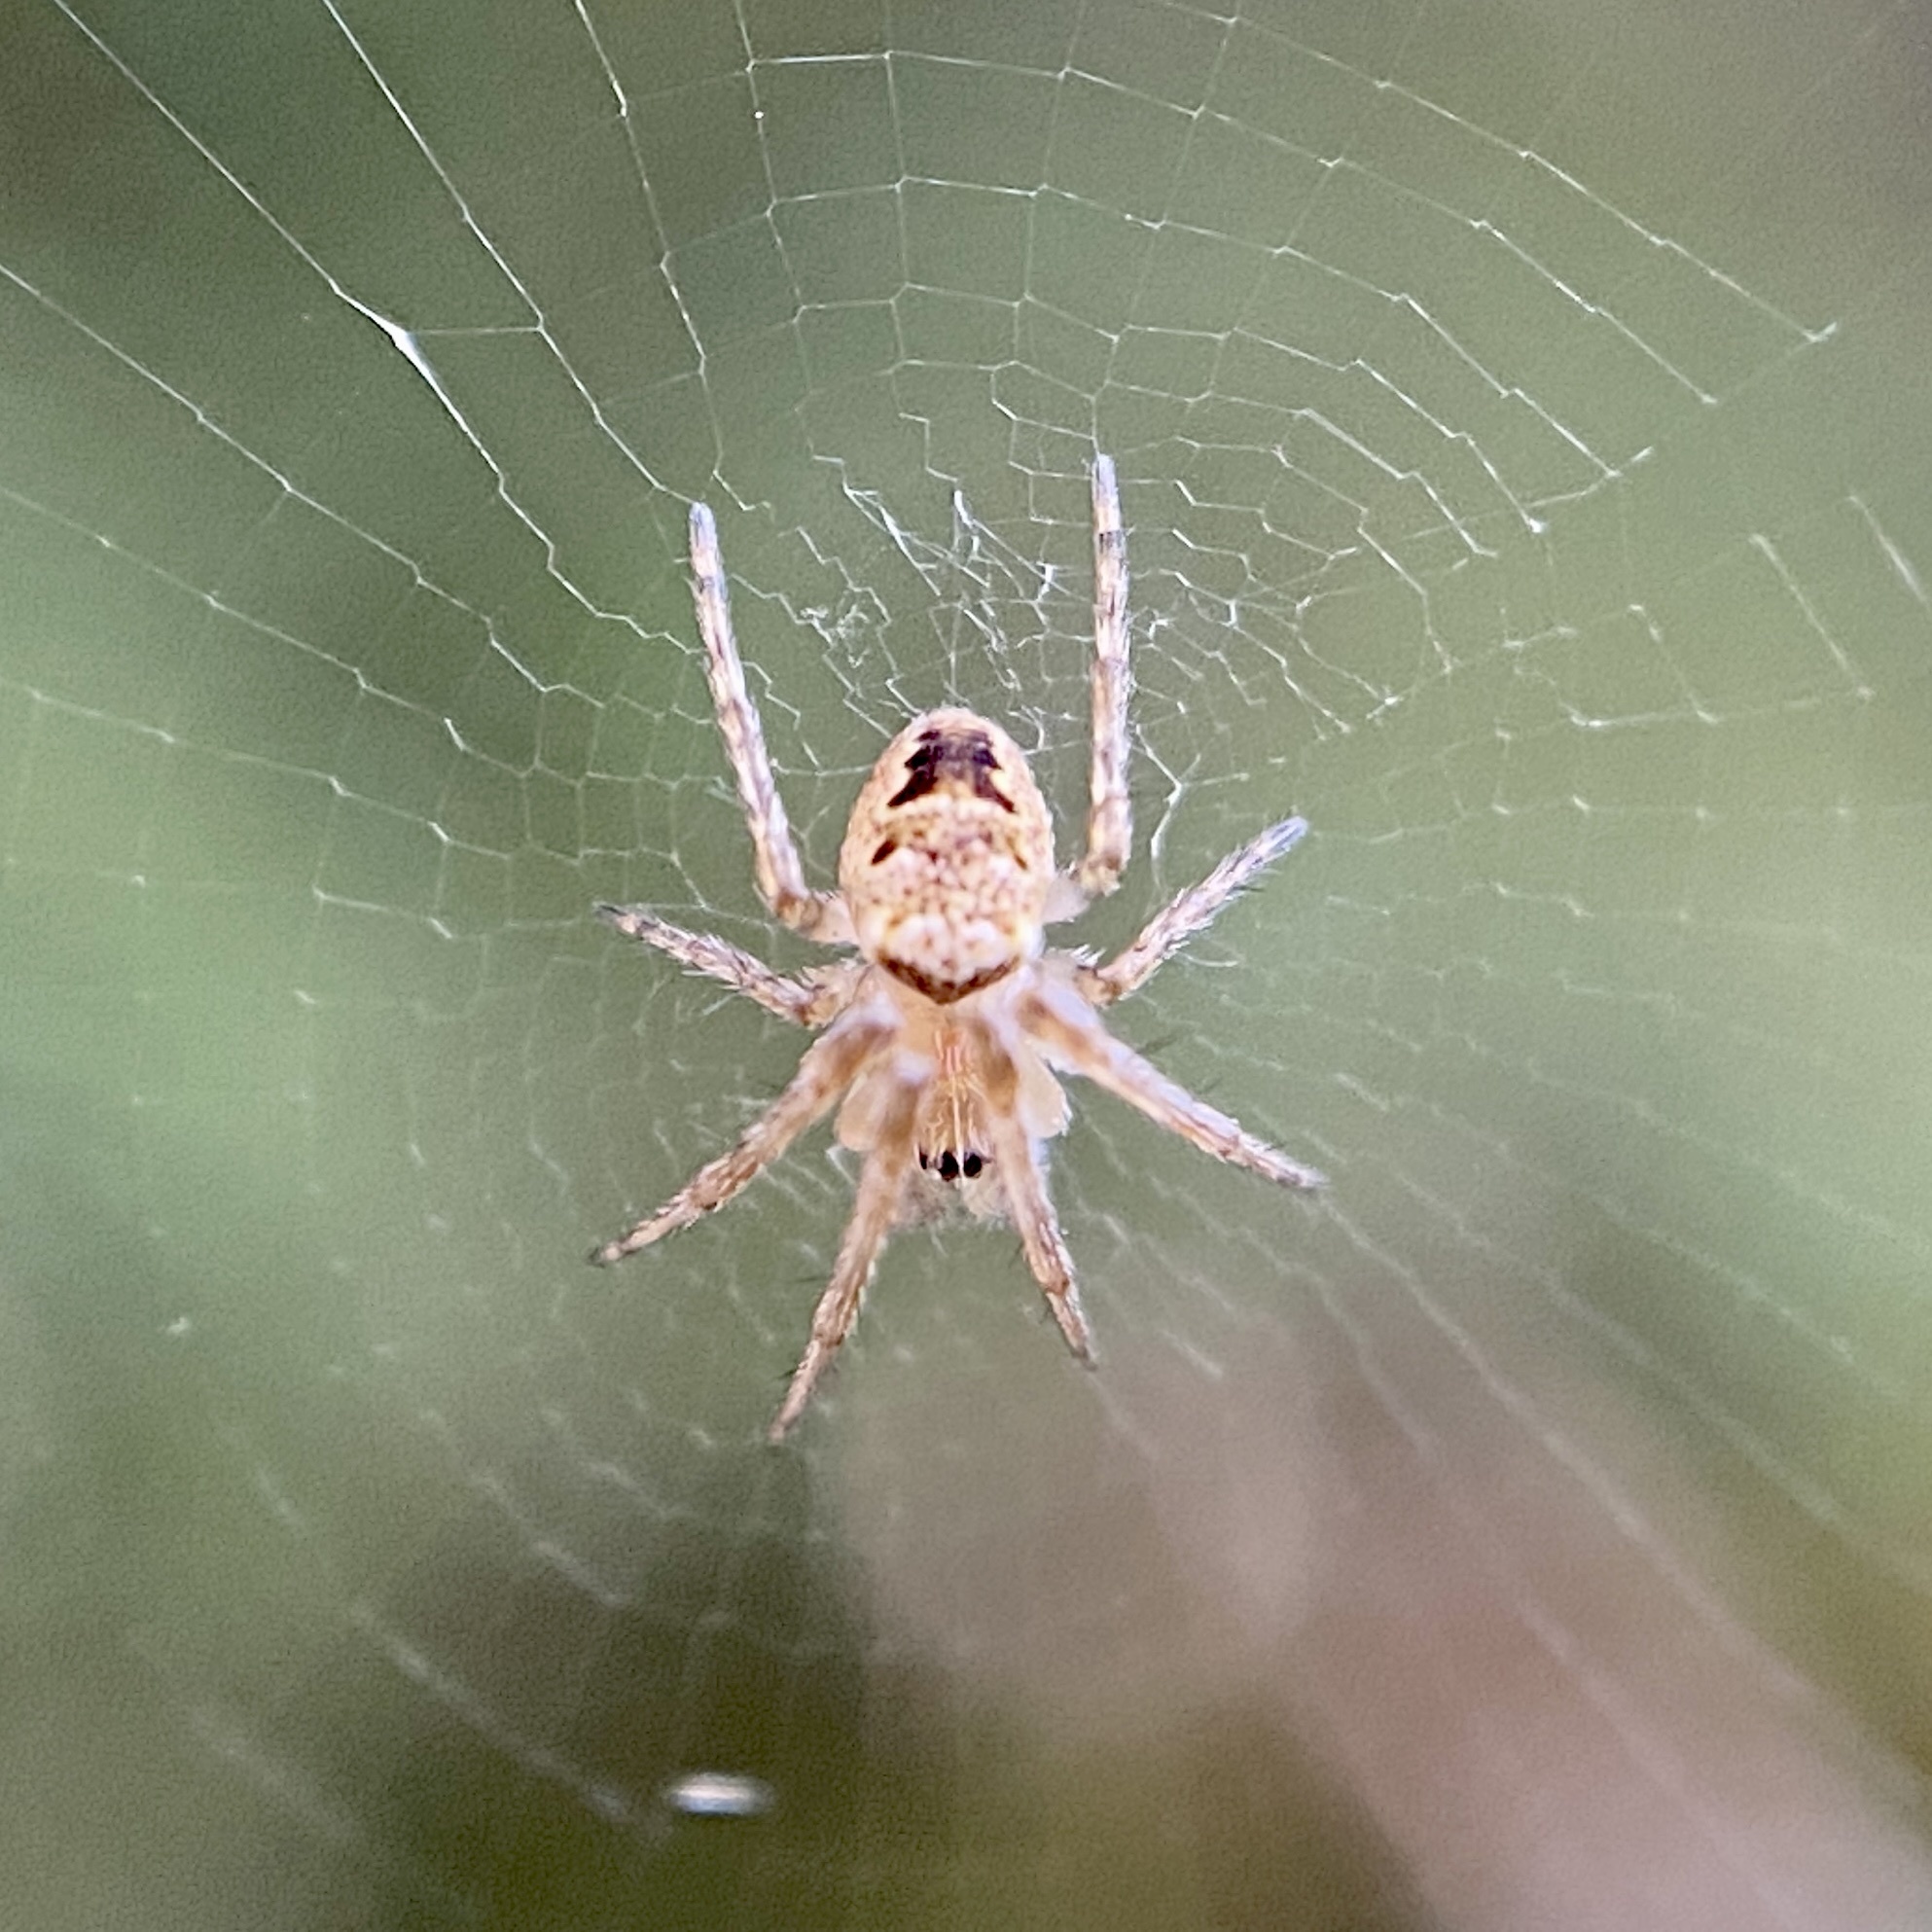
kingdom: Animalia
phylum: Arthropoda
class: Arachnida
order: Araneae
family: Araneidae
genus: Zilla
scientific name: Zilla diodia
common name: Zilla diodia
